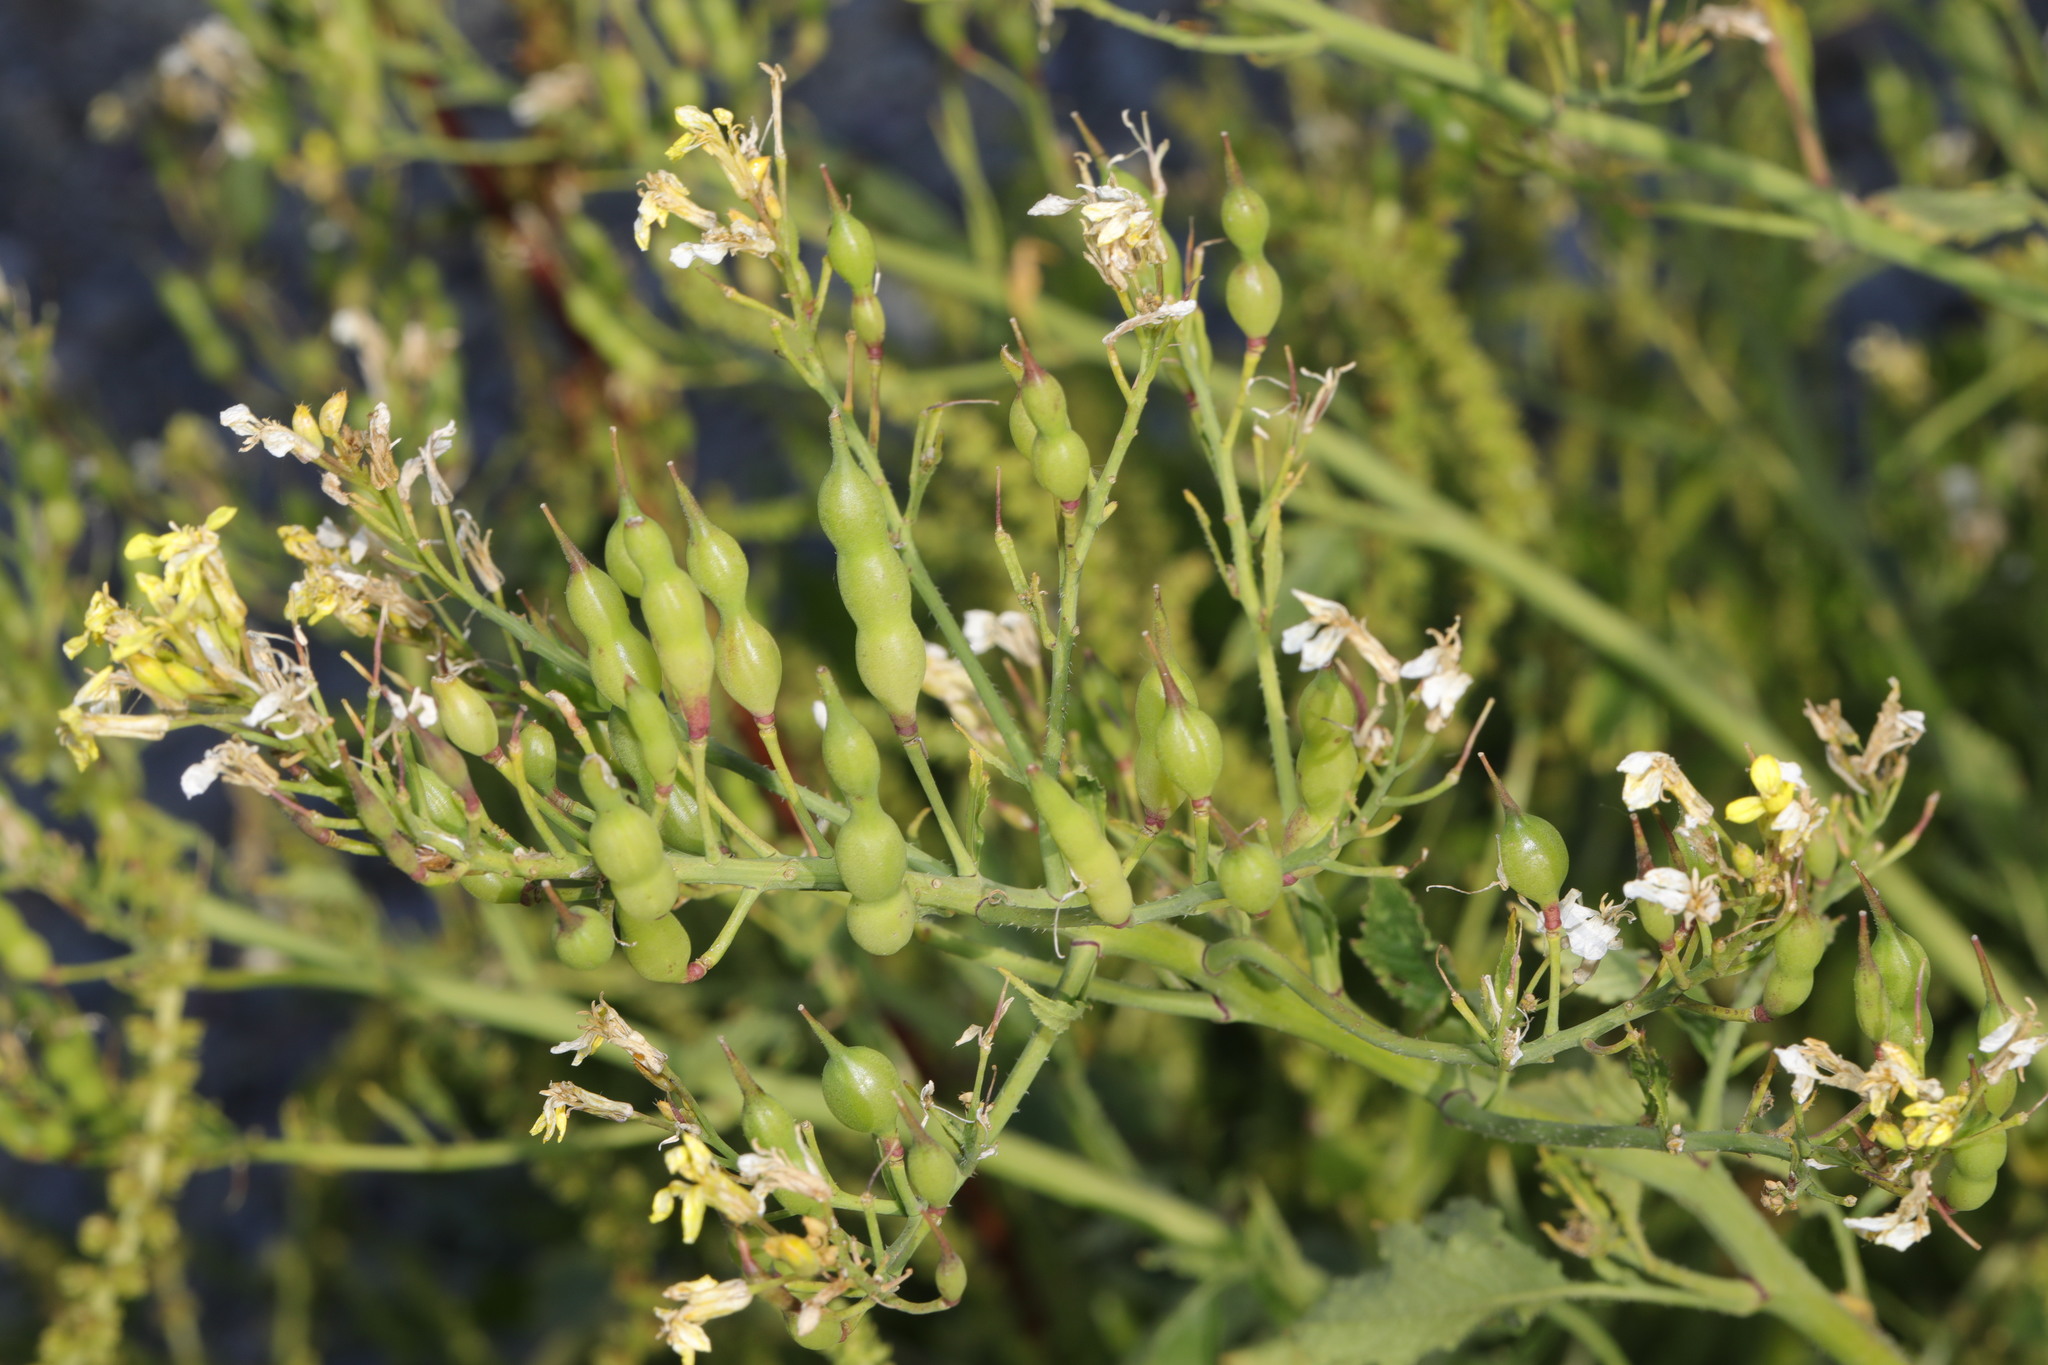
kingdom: Plantae
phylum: Tracheophyta
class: Magnoliopsida
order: Brassicales
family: Brassicaceae
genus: Raphanus
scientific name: Raphanus raphanistrum
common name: Wild radish
